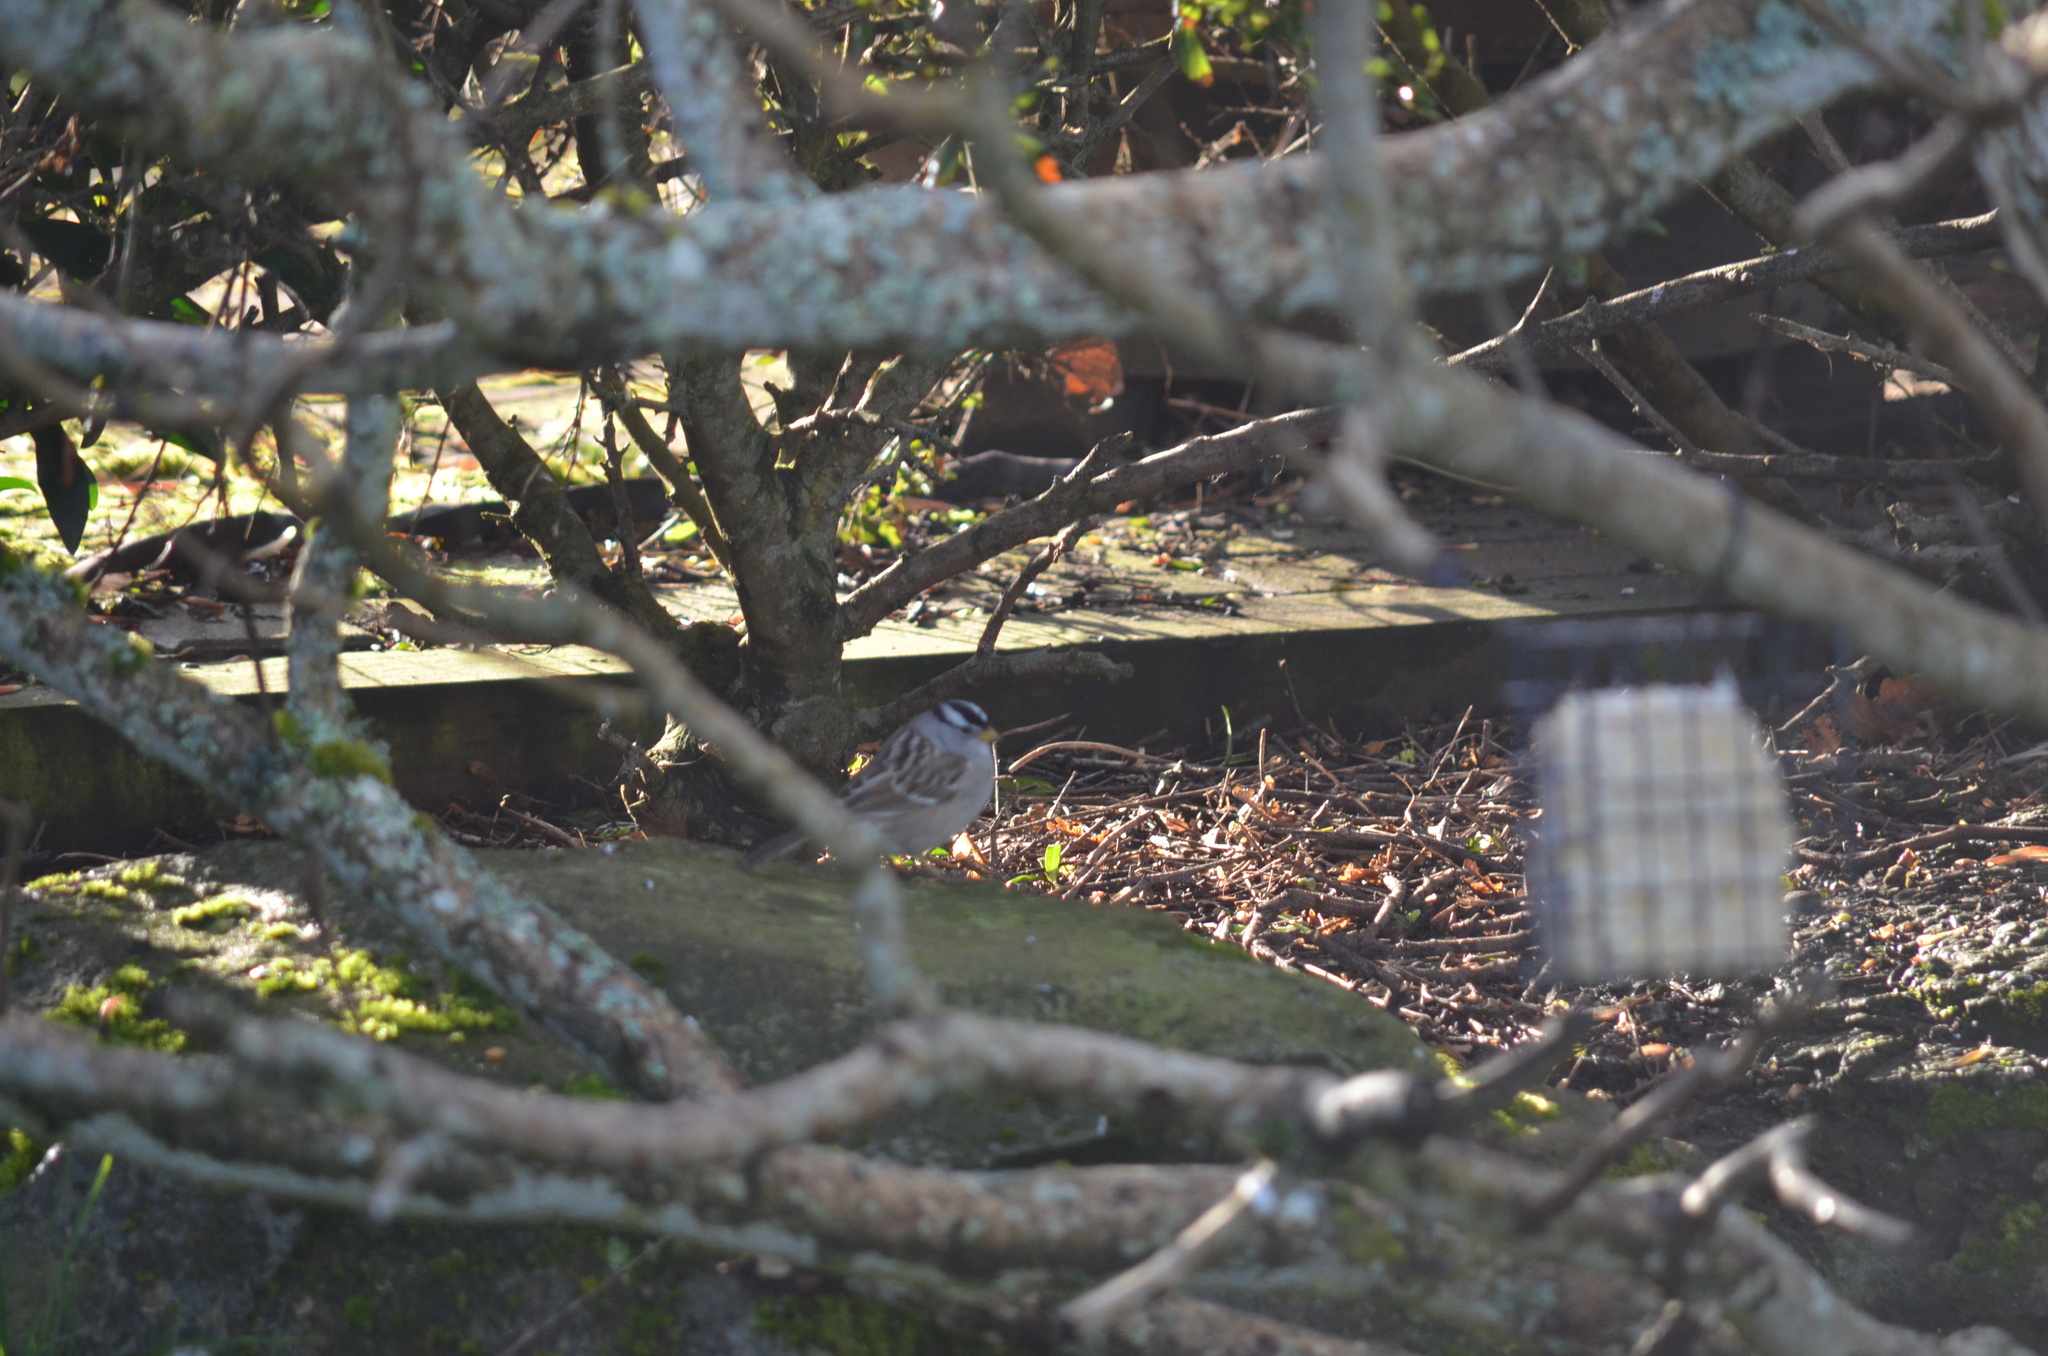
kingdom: Animalia
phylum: Chordata
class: Aves
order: Passeriformes
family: Passerellidae
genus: Zonotrichia
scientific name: Zonotrichia leucophrys
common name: White-crowned sparrow
